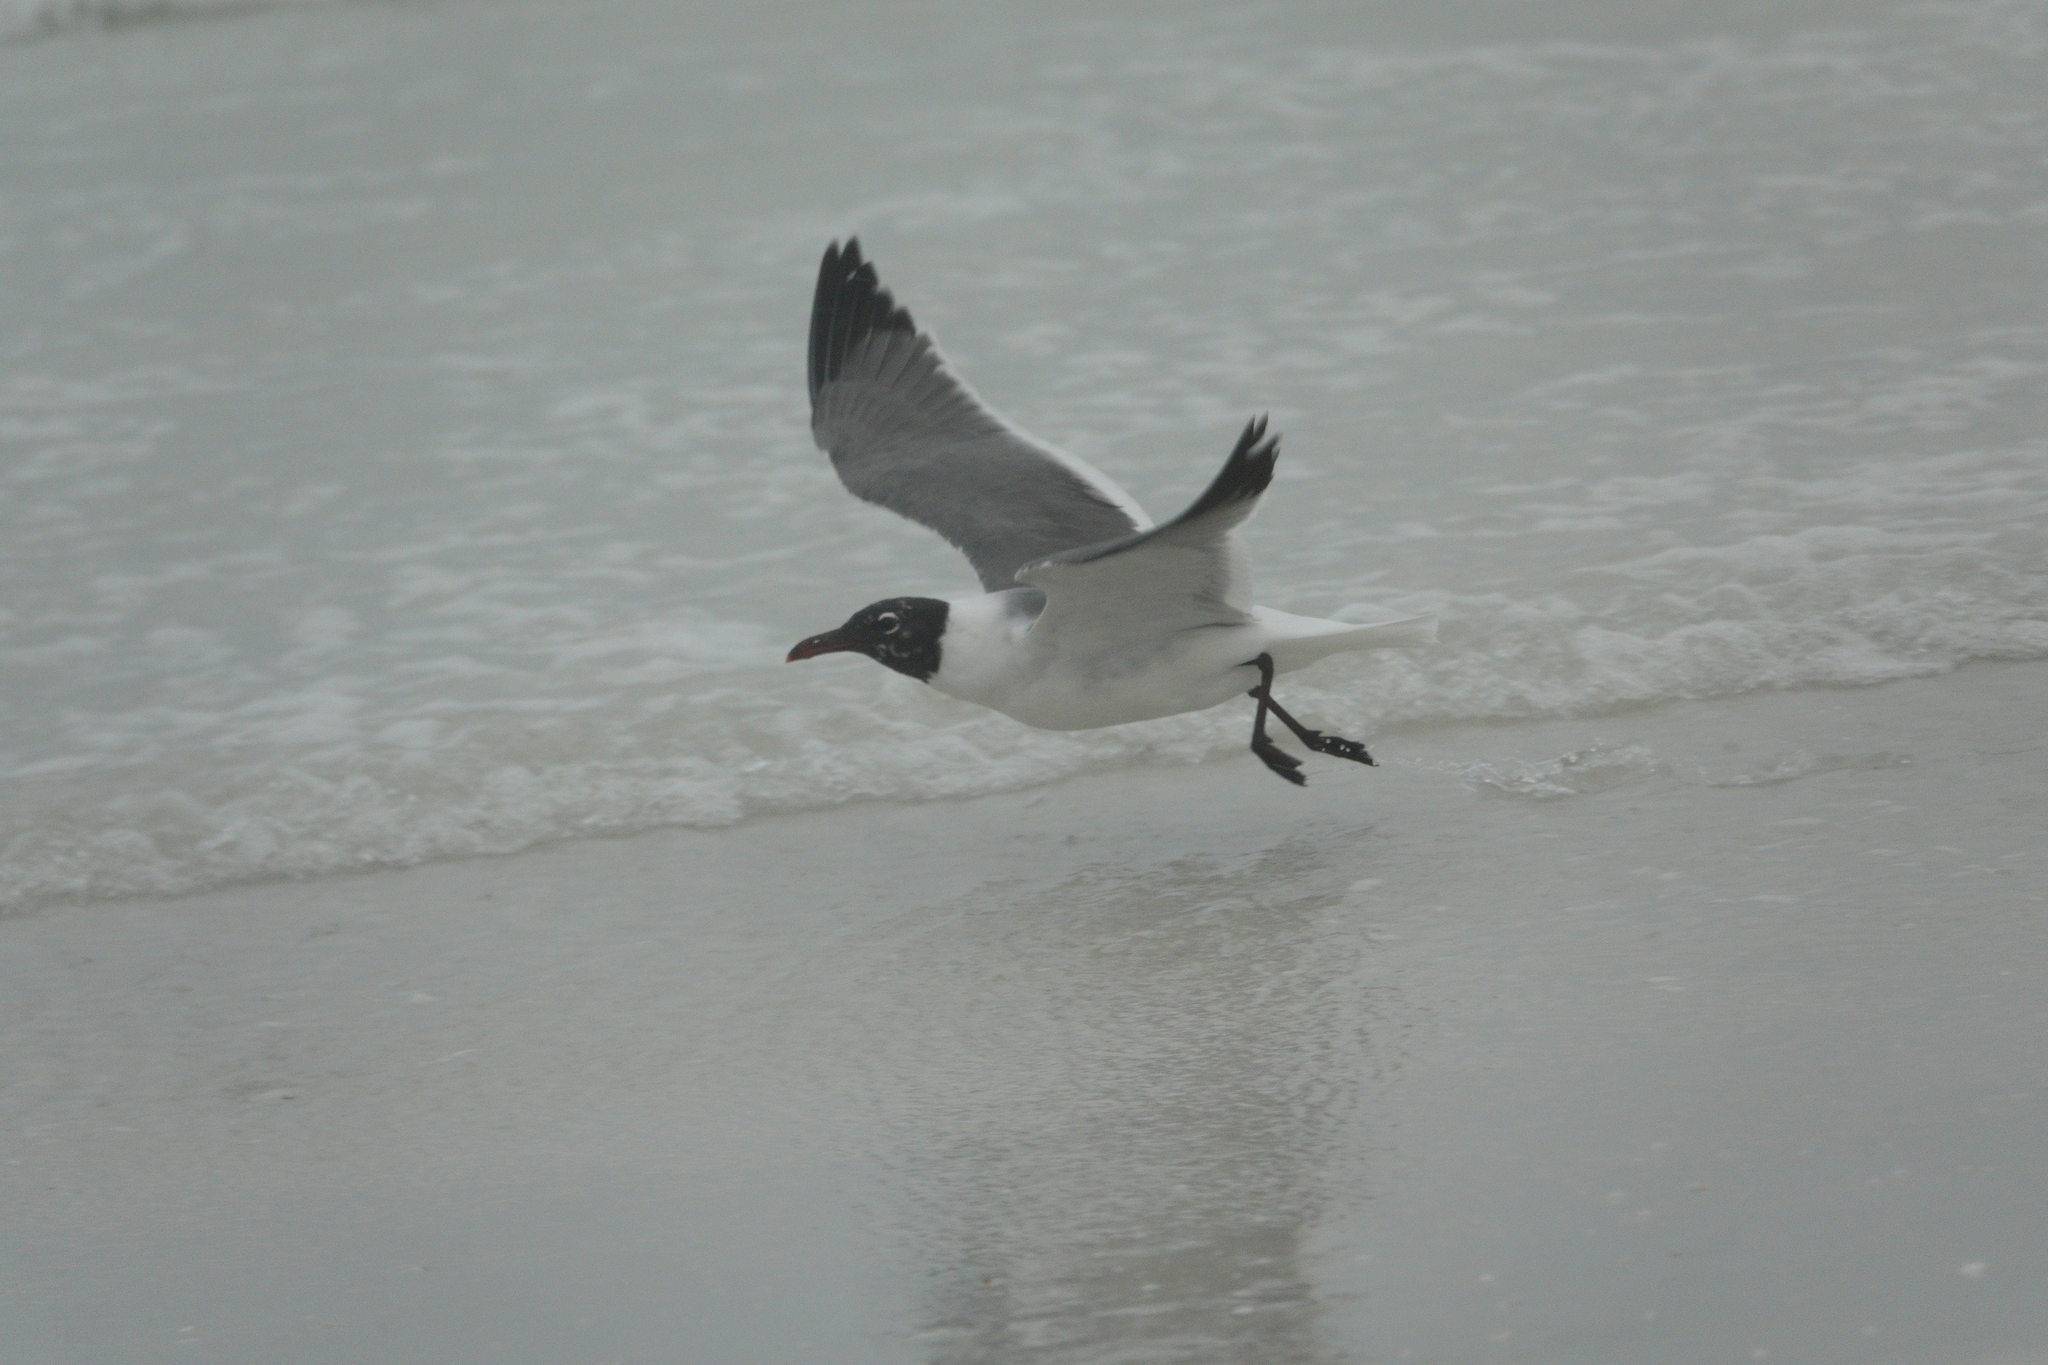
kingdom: Animalia
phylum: Chordata
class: Aves
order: Charadriiformes
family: Laridae
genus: Leucophaeus
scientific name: Leucophaeus atricilla
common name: Laughing gull
